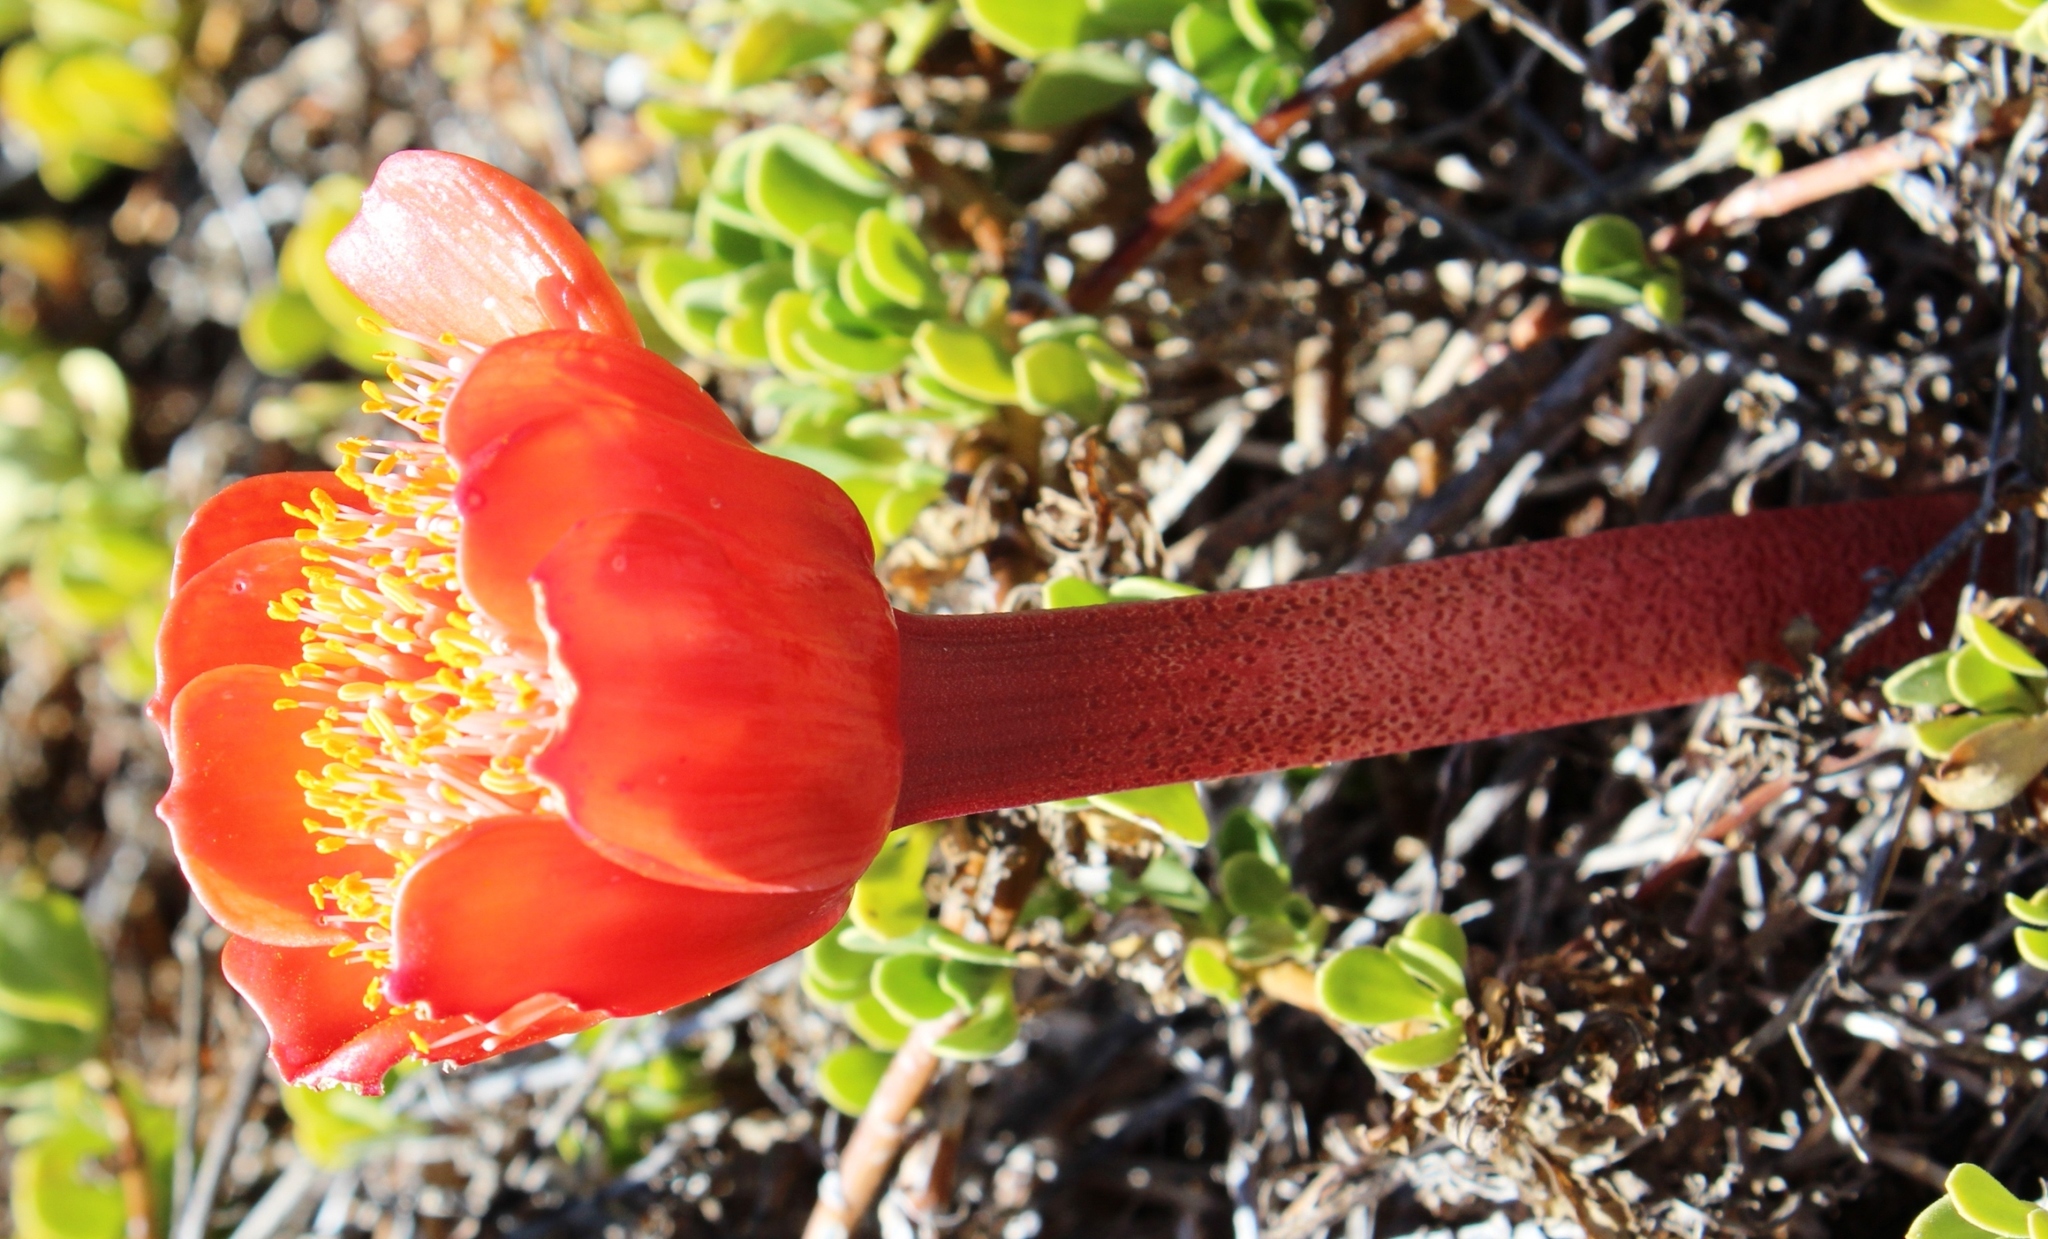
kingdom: Plantae
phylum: Tracheophyta
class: Liliopsida
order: Asparagales
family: Amaryllidaceae
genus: Haemanthus
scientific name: Haemanthus coccineus
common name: Cape-tulip
